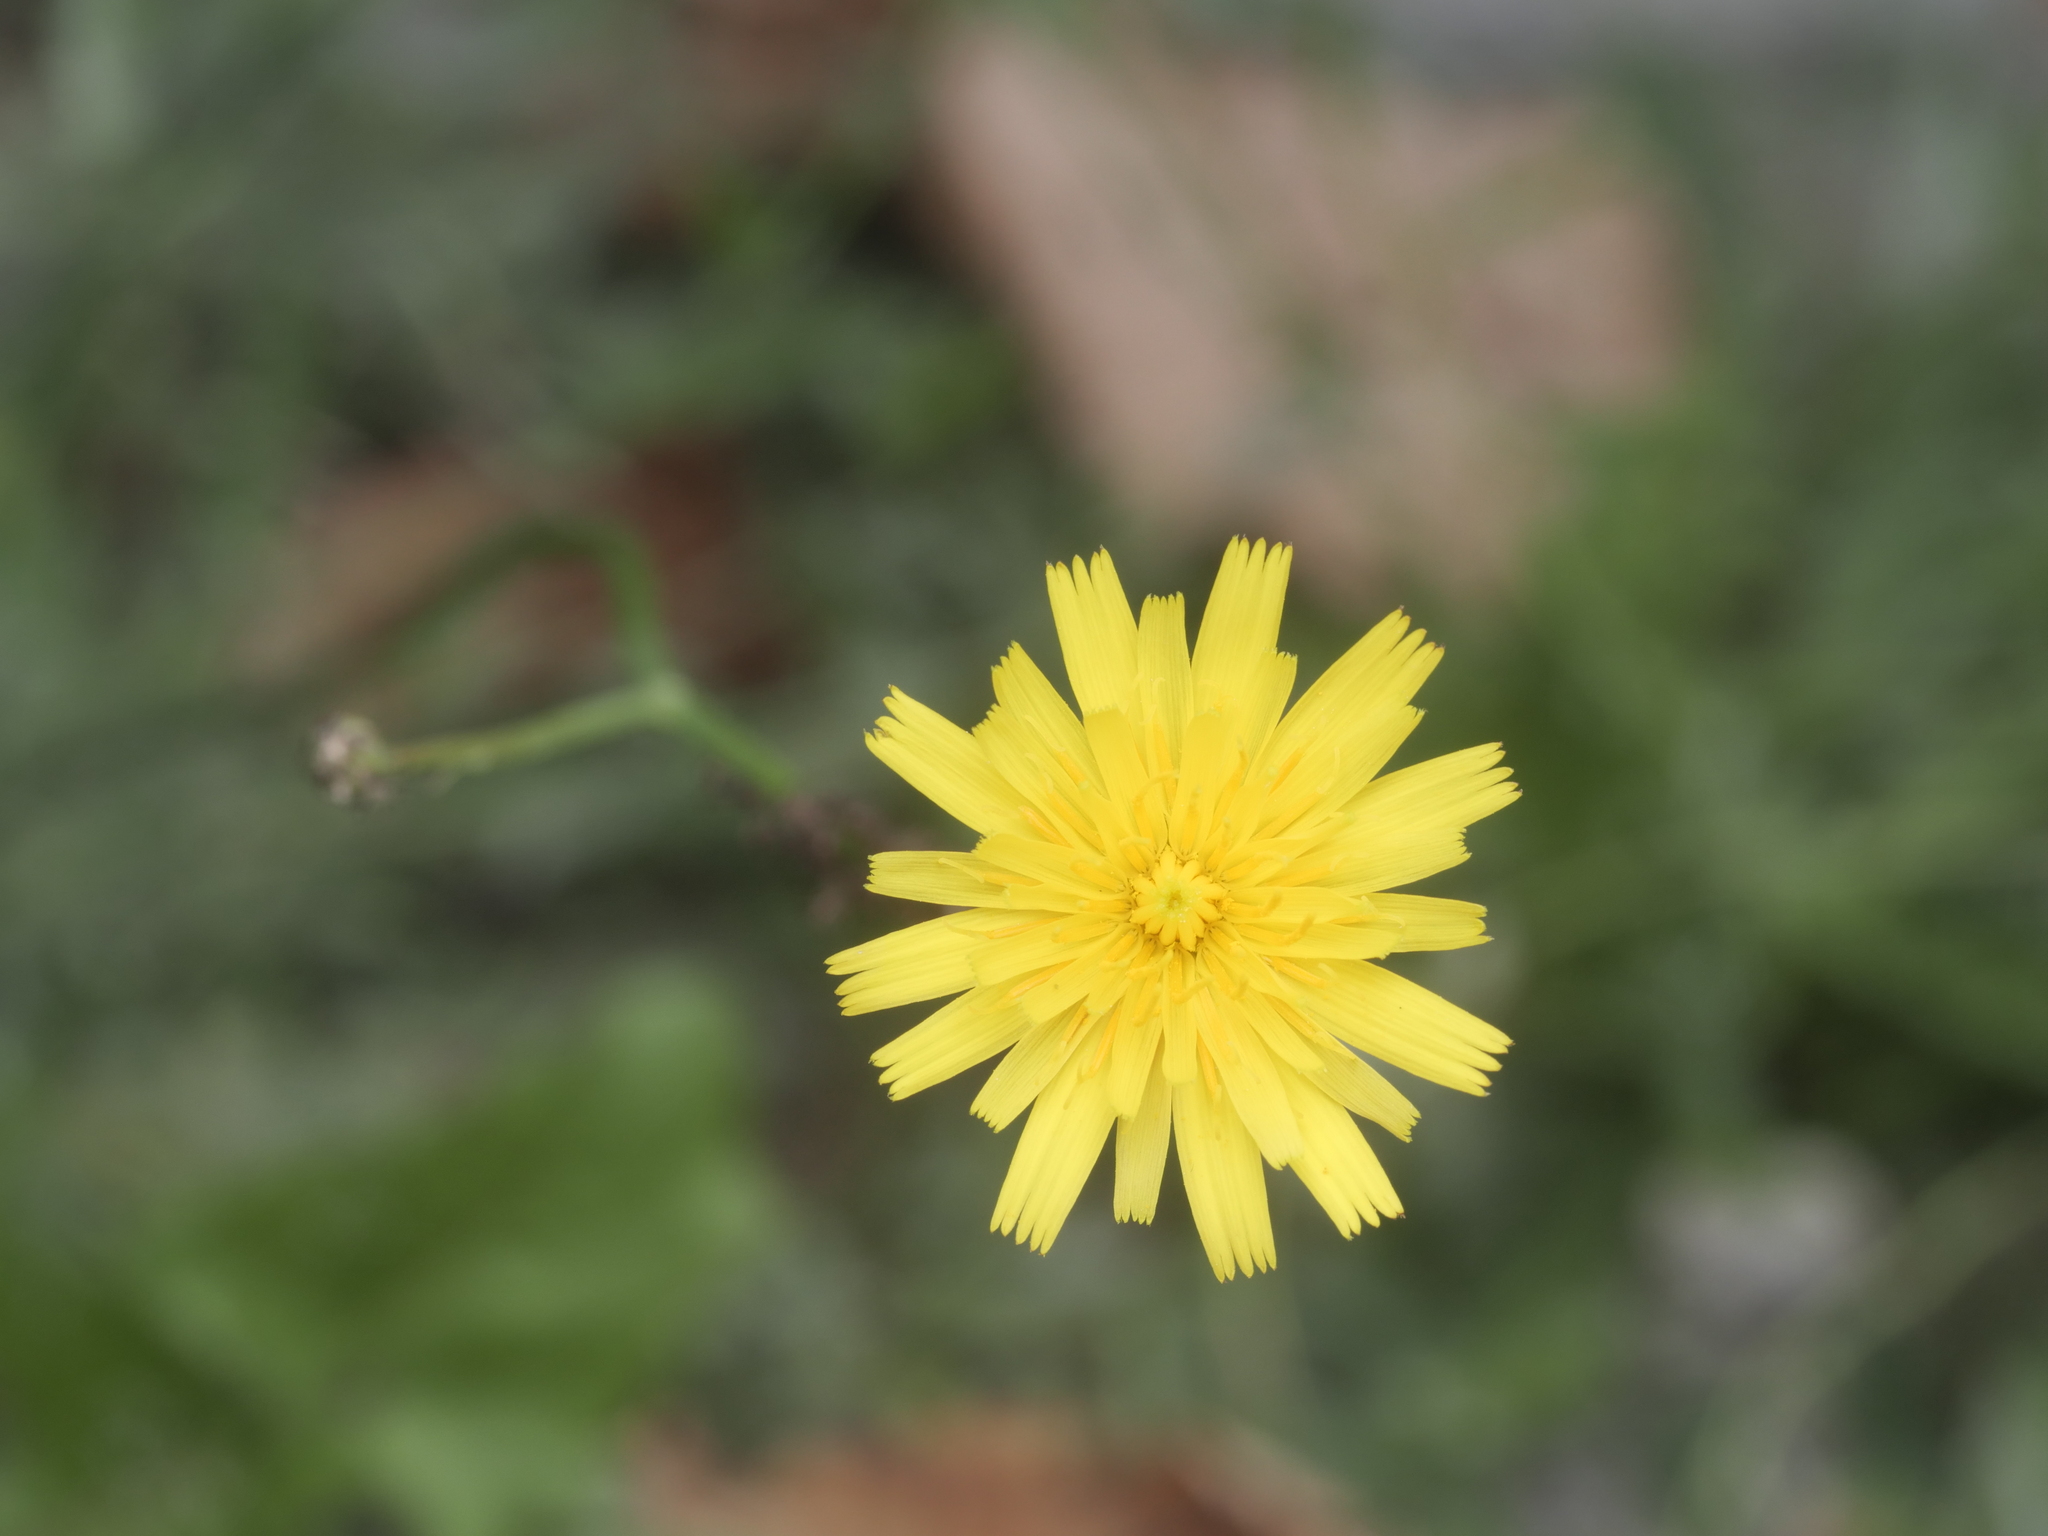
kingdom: Plantae
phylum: Tracheophyta
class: Magnoliopsida
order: Asterales
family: Asteraceae
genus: Hypochaeris
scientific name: Hypochaeris radicata
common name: Flatweed
